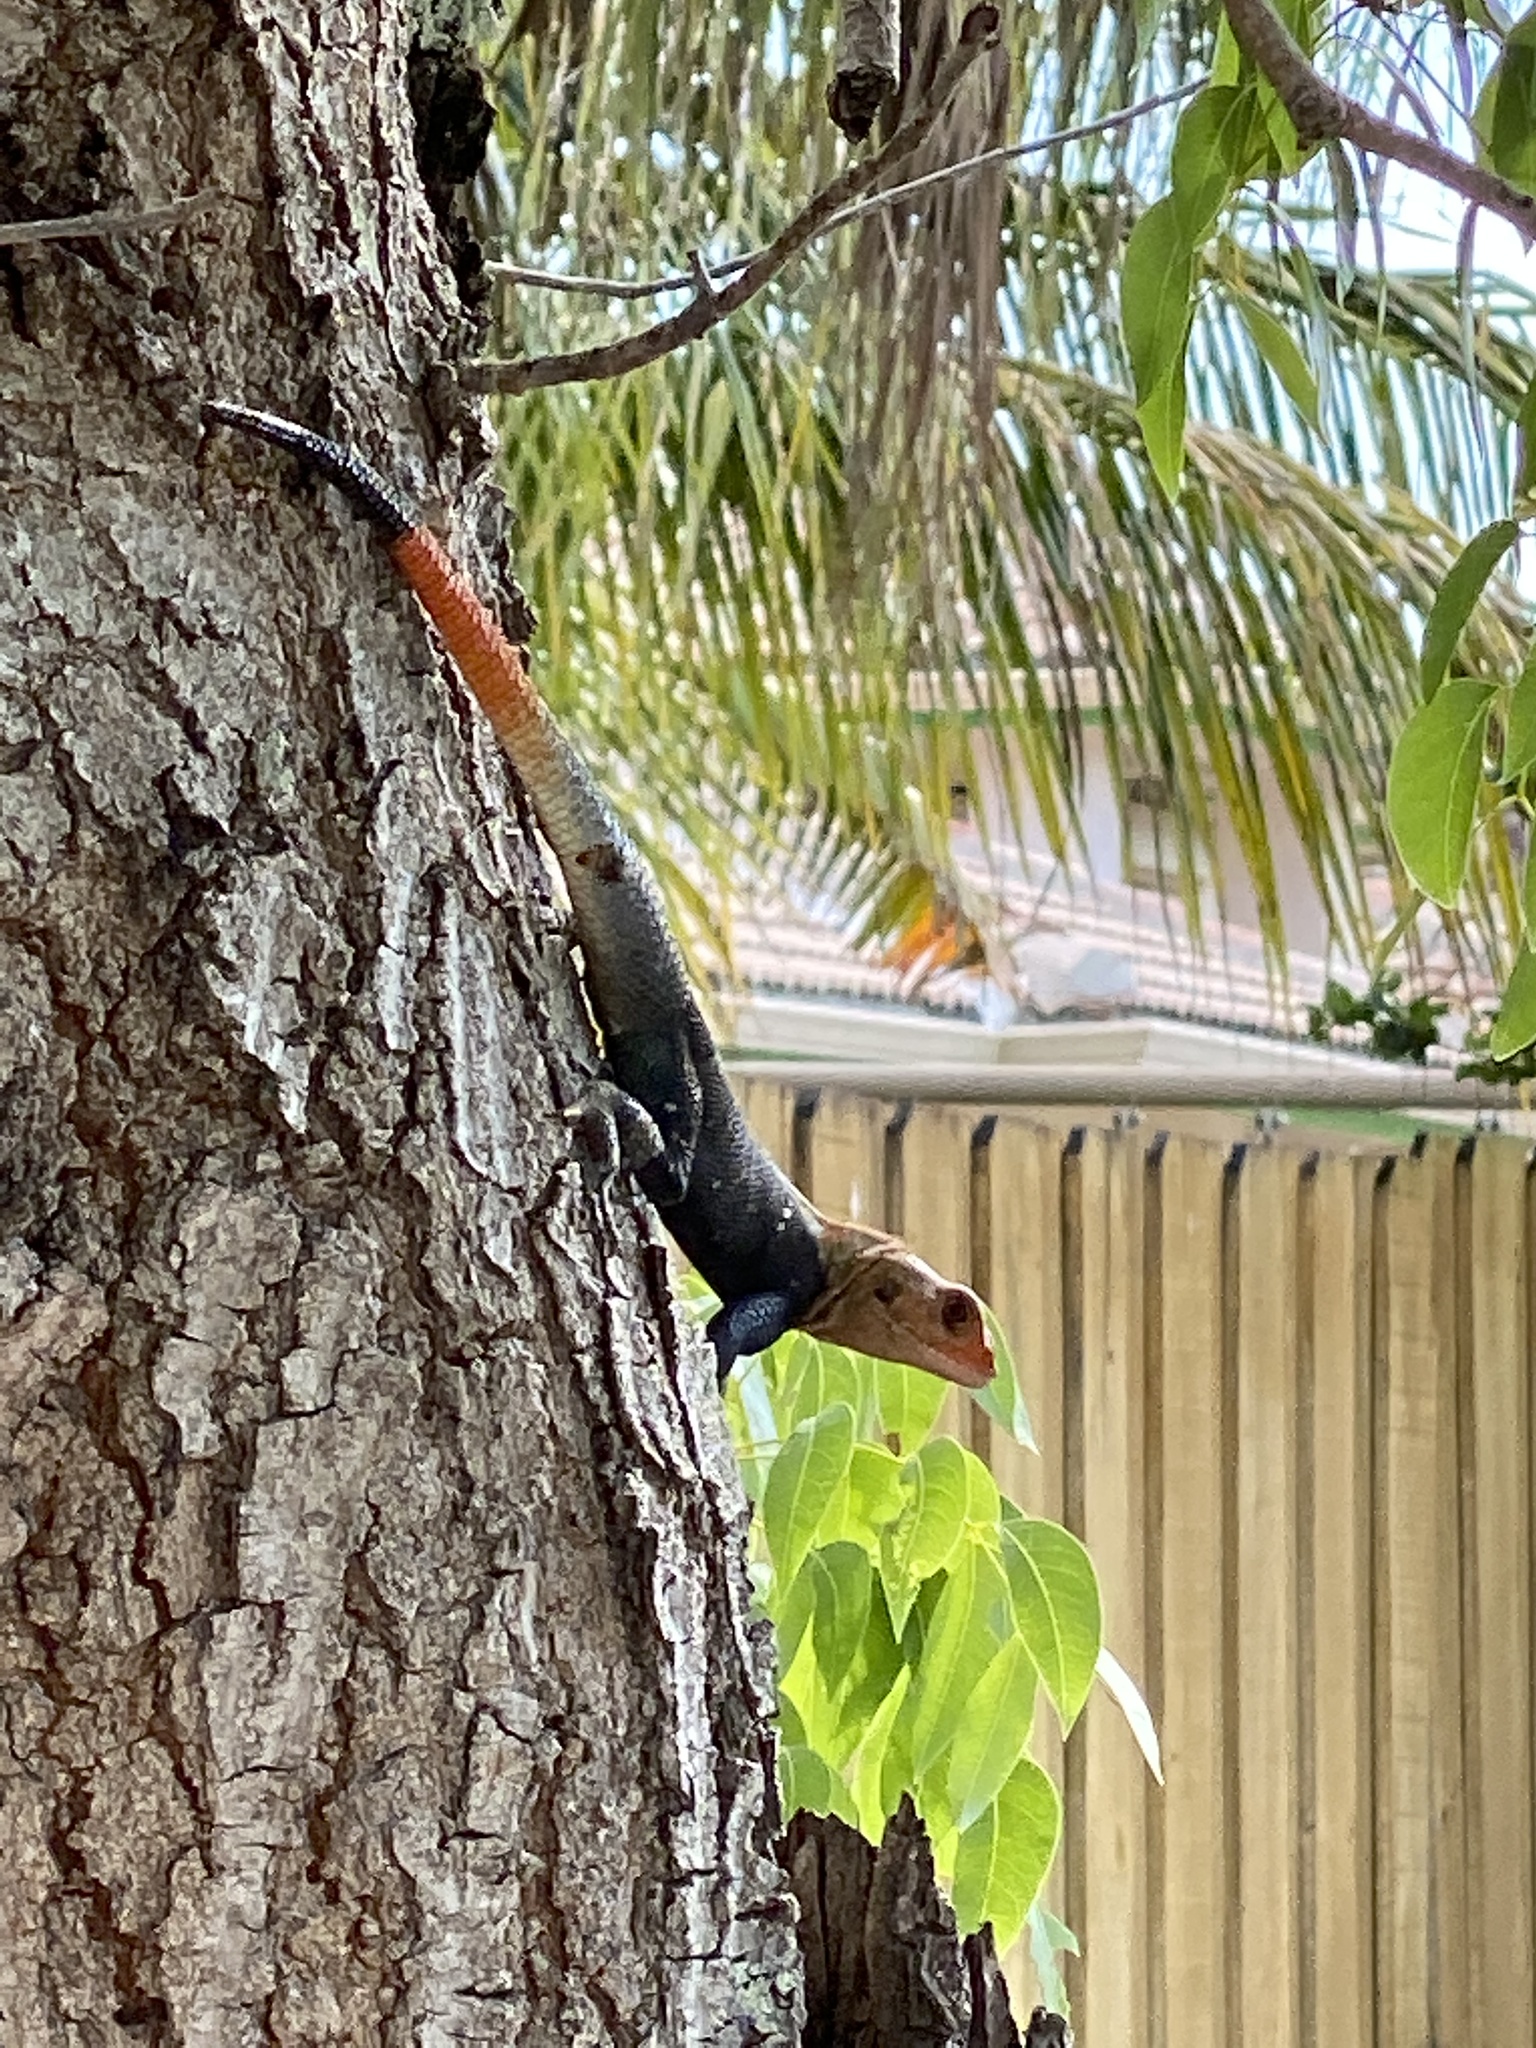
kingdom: Animalia
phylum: Chordata
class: Squamata
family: Agamidae
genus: Agama
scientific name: Agama picticauda
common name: Red-headed agama
